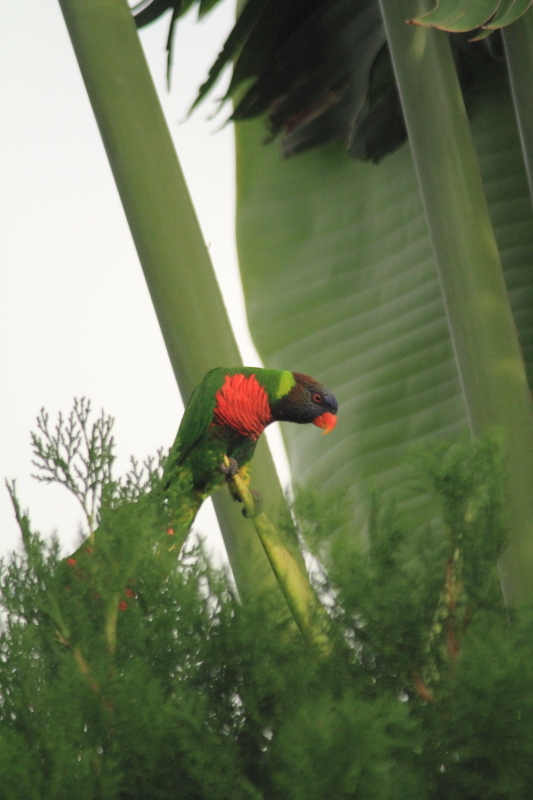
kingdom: Animalia
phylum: Chordata
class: Aves
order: Psittaciformes
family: Psittacidae
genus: Trichoglossus
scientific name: Trichoglossus haematodus
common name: Coconut lorikeet
